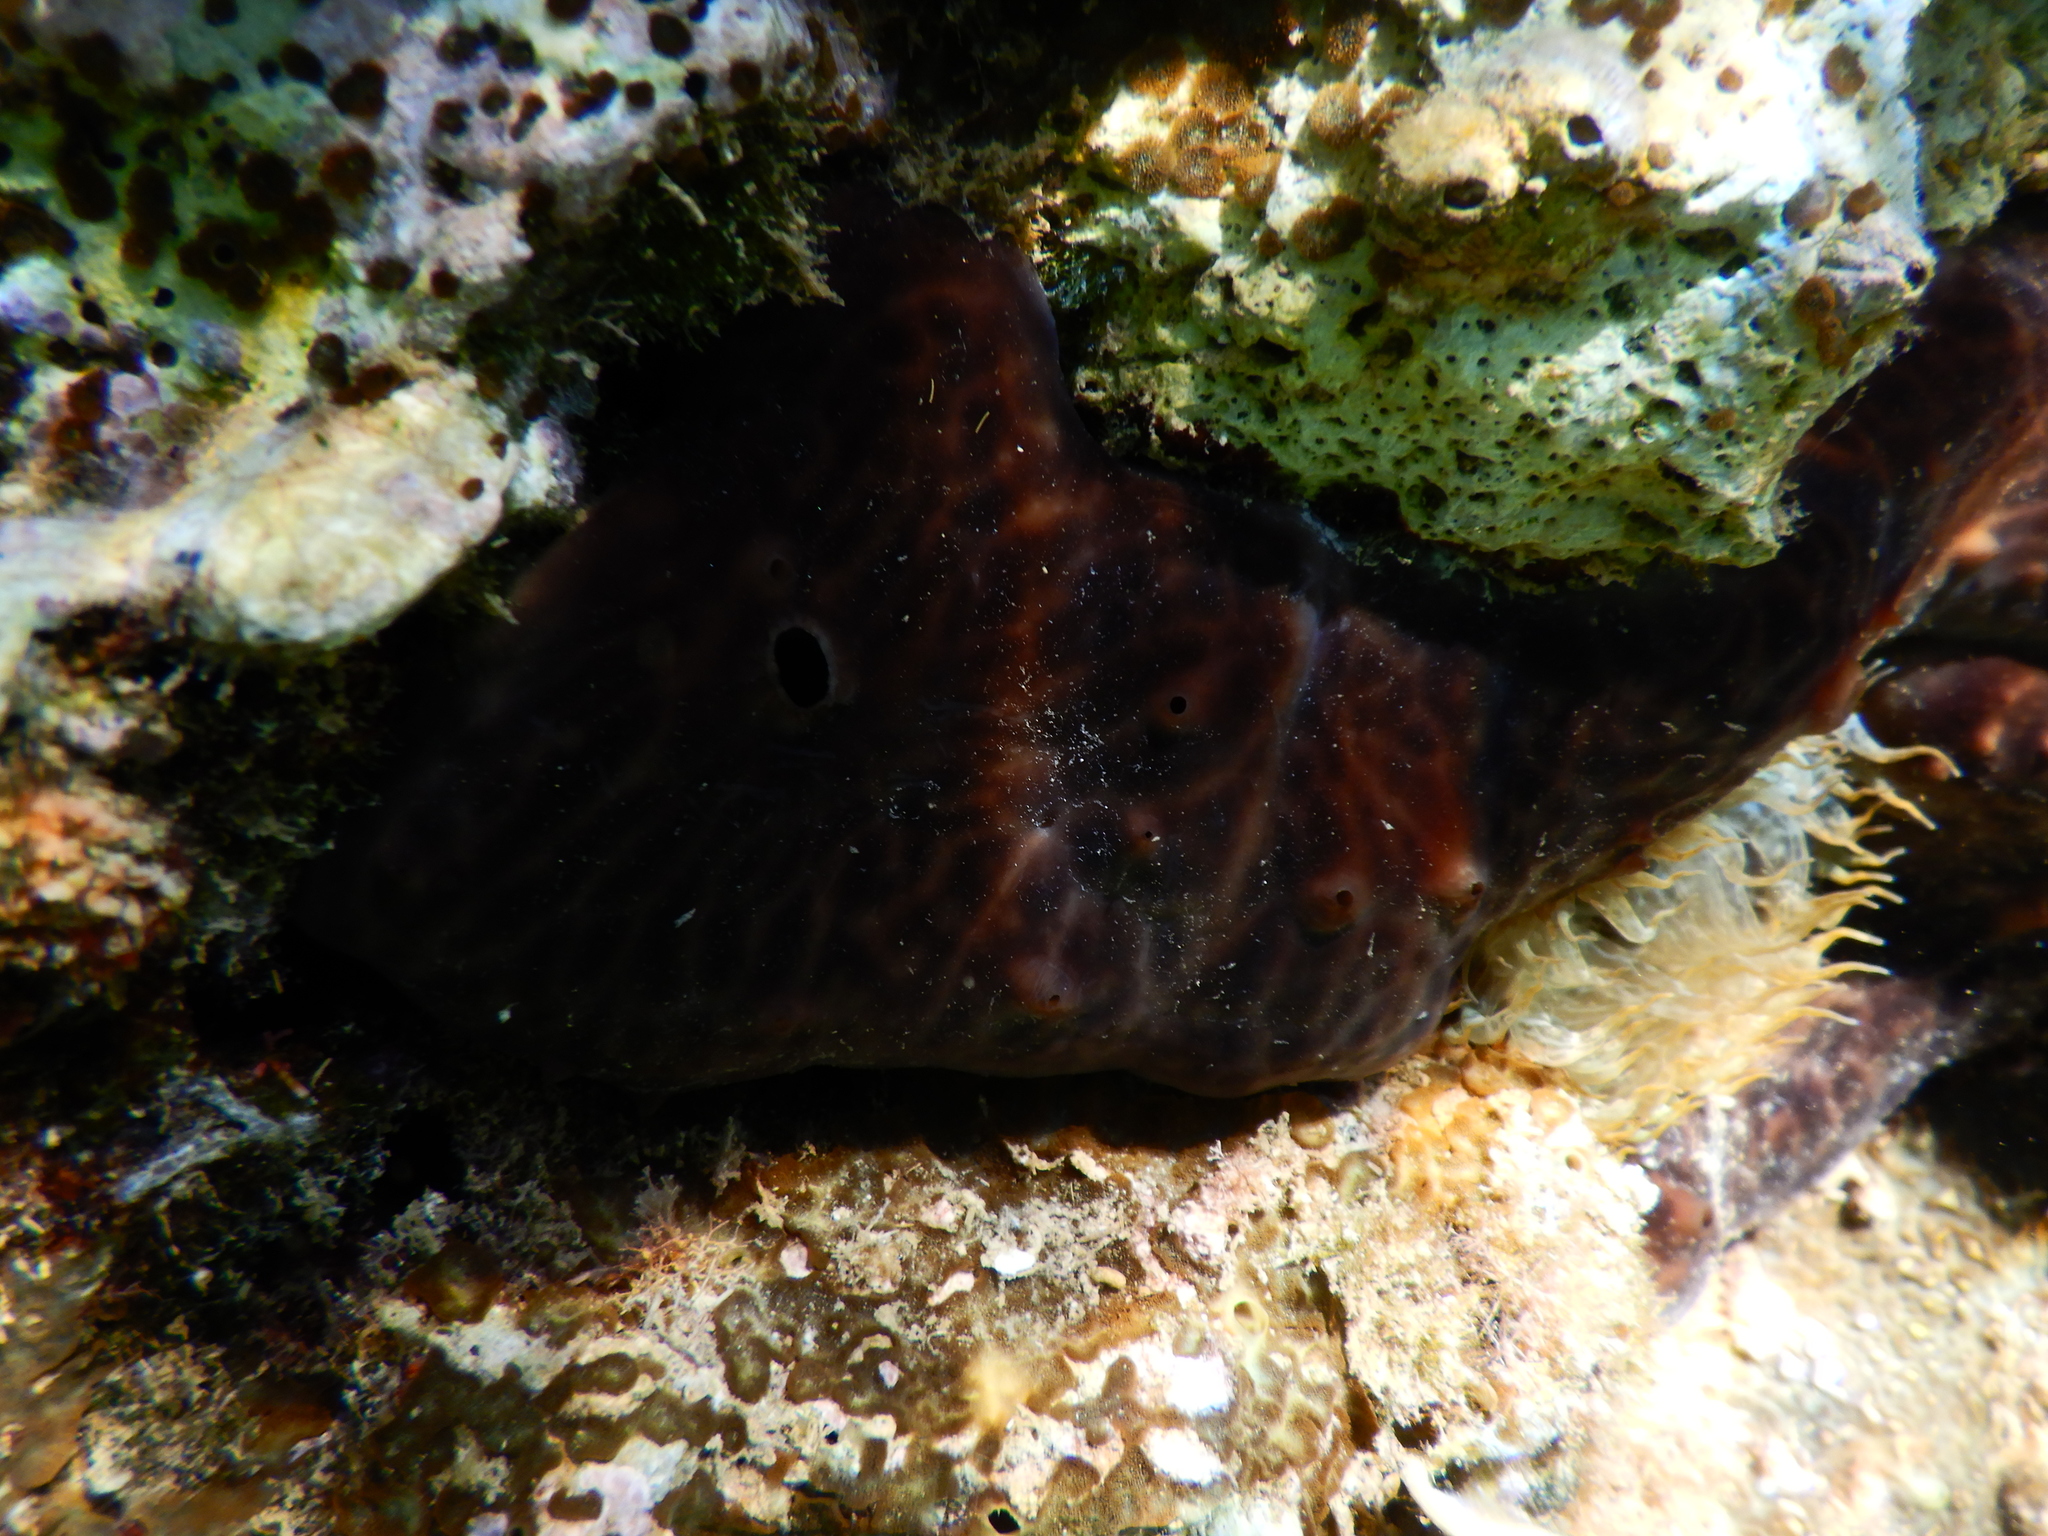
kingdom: Animalia
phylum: Porifera
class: Demospongiae
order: Chondrosiida
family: Chondrosiidae
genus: Chondrosia
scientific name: Chondrosia reniformis
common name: Chicken liver sponge
